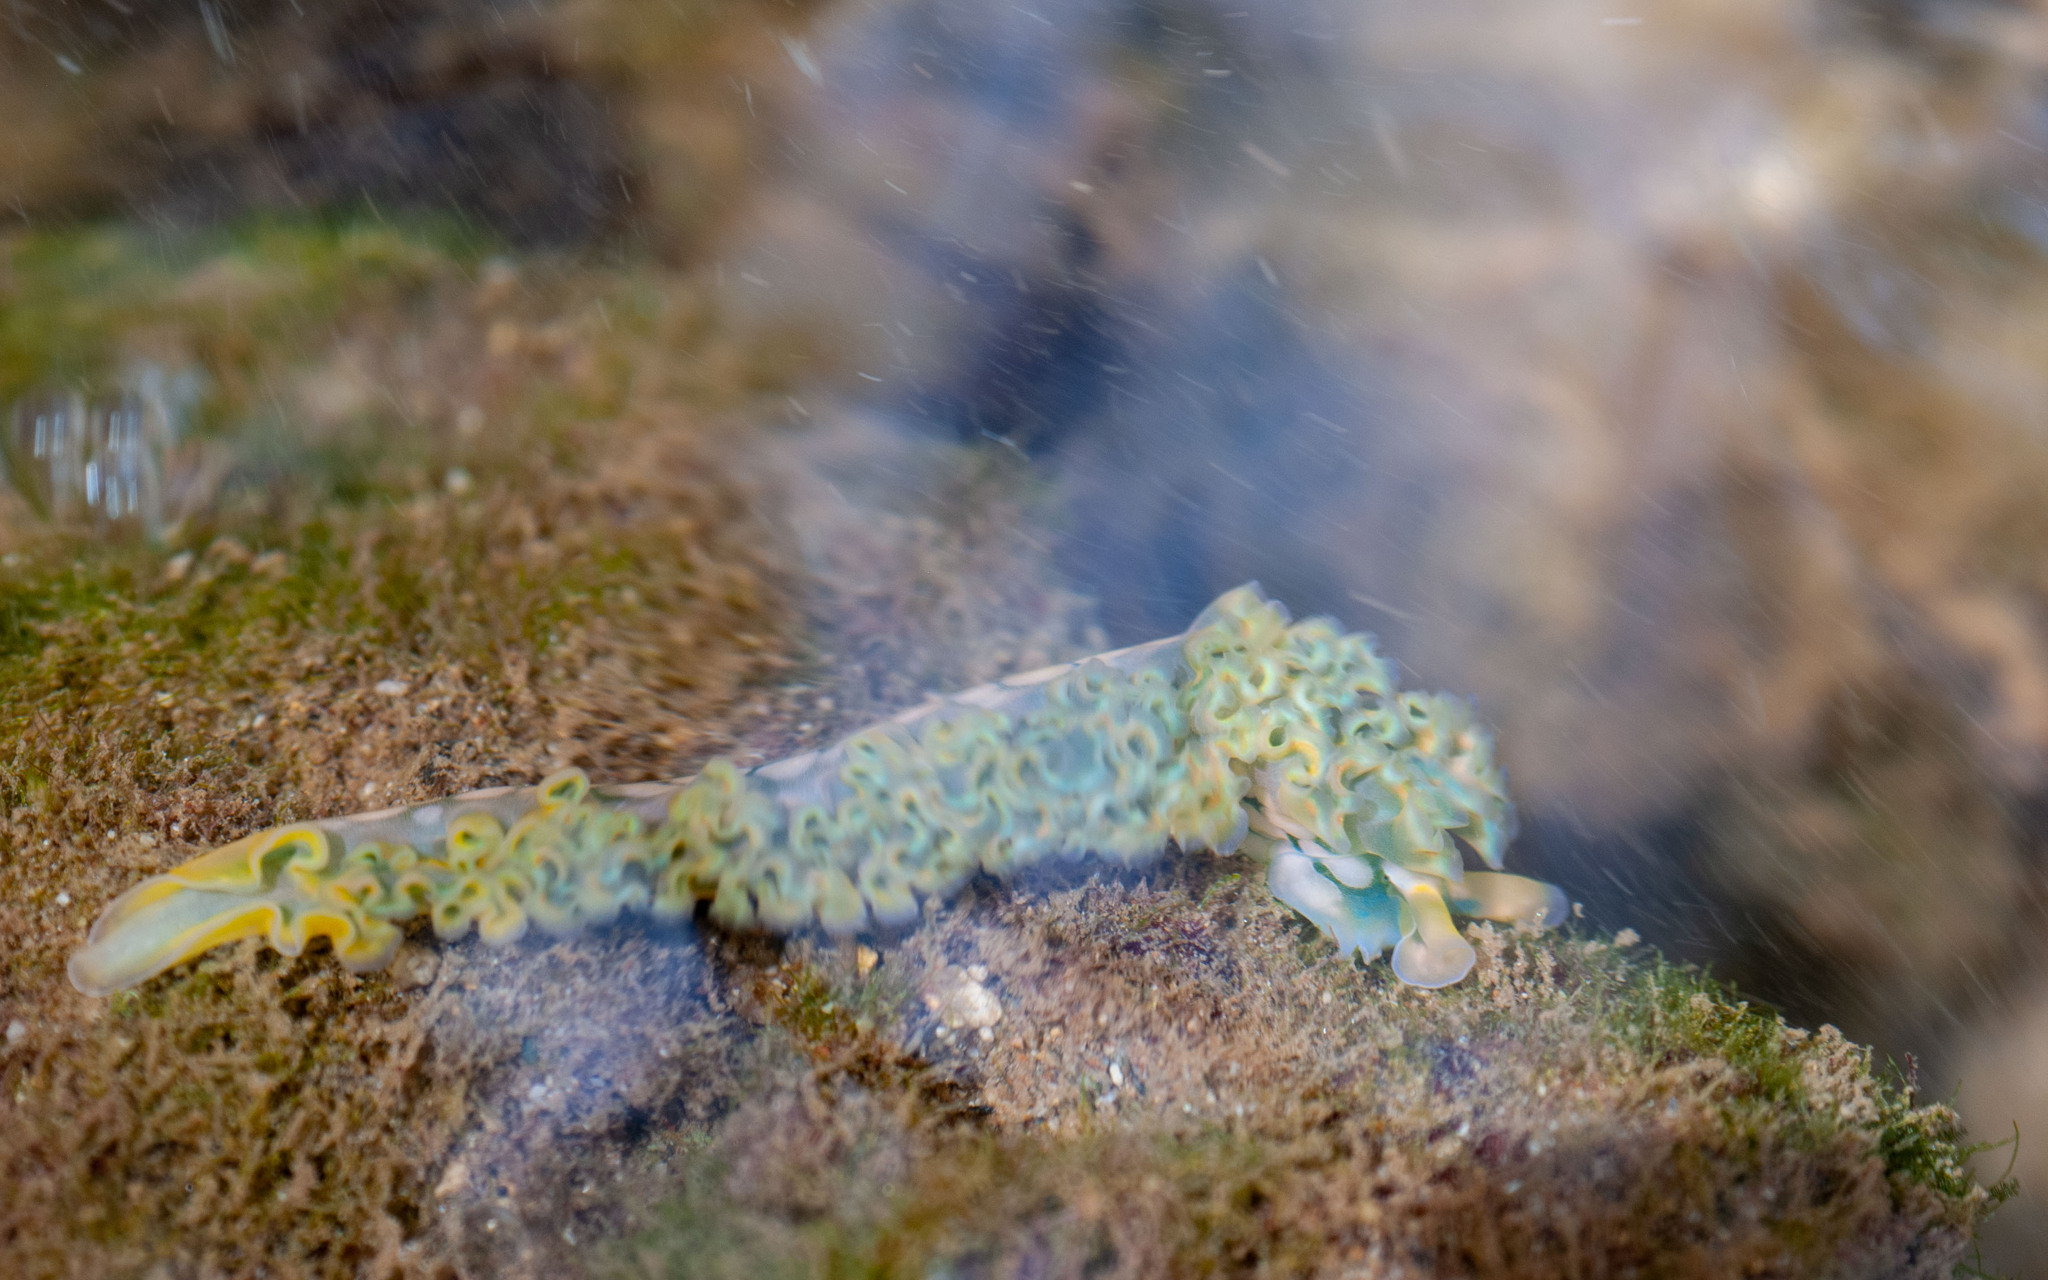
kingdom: Animalia
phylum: Mollusca
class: Gastropoda
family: Plakobranchidae
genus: Elysia
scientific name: Elysia crispata
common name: Lettuce slug
